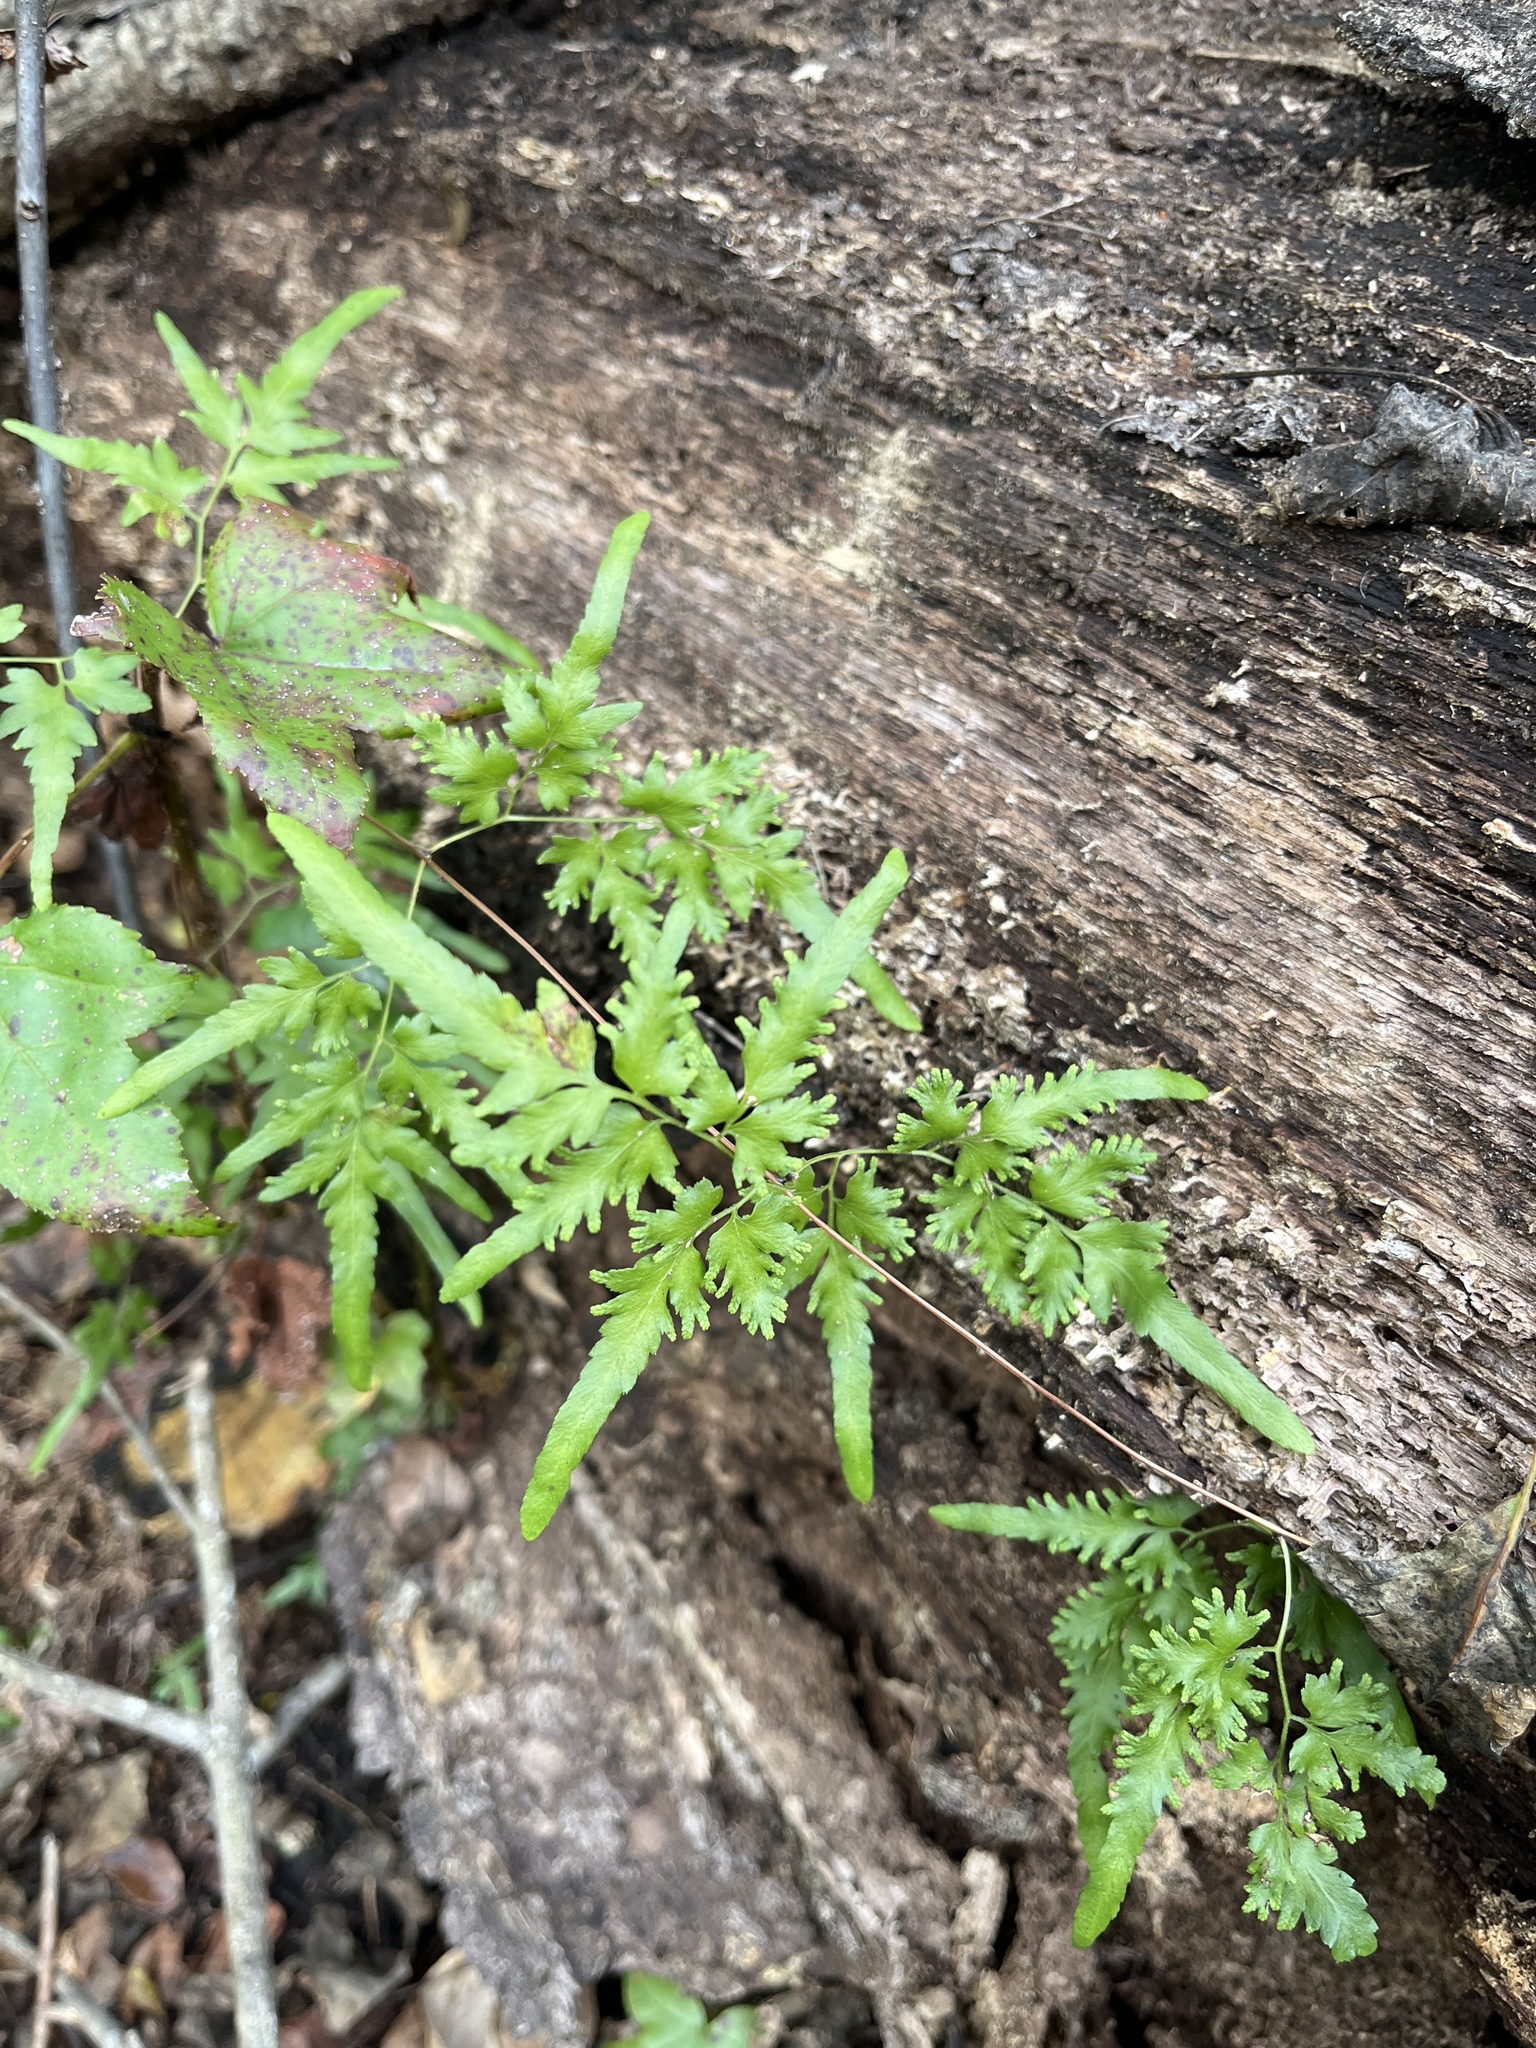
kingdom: Plantae
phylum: Tracheophyta
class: Polypodiopsida
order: Schizaeales
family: Lygodiaceae
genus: Lygodium
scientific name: Lygodium japonicum
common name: Japanese climbing fern
